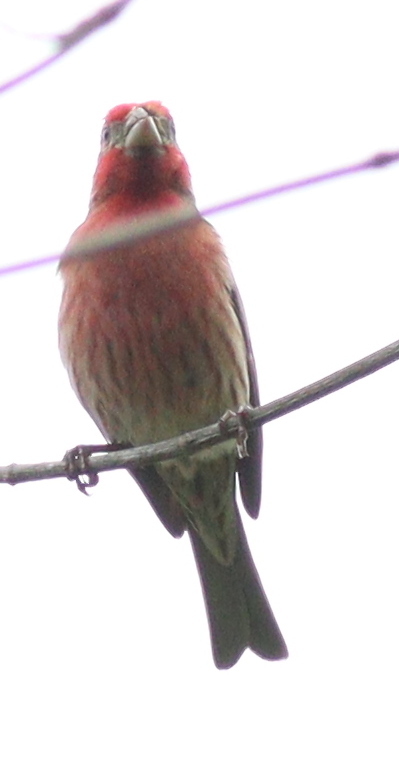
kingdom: Animalia
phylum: Chordata
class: Aves
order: Passeriformes
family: Fringillidae
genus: Haemorhous
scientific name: Haemorhous mexicanus
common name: House finch
